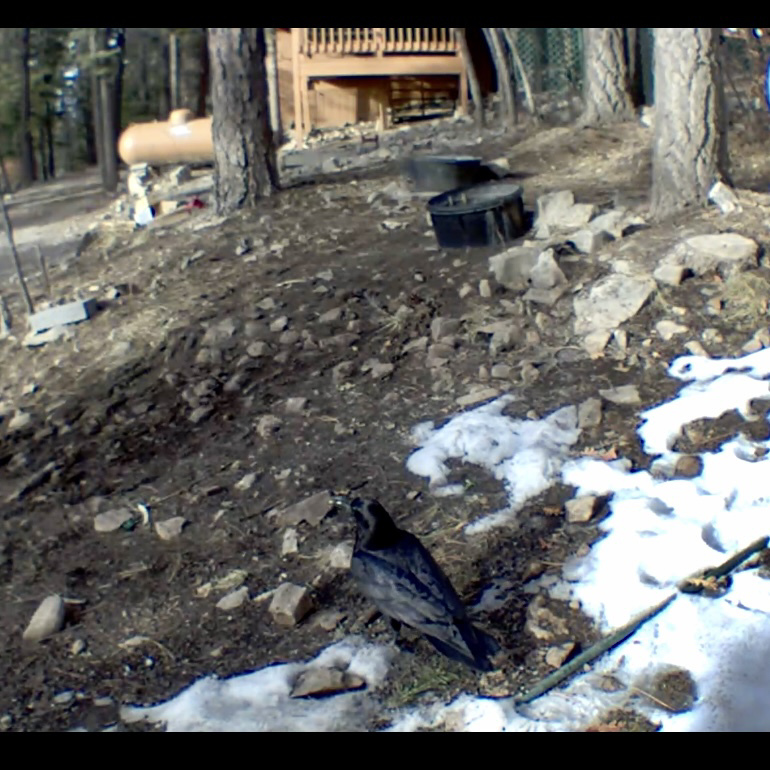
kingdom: Animalia
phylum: Chordata
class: Aves
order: Passeriformes
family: Corvidae
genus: Corvus
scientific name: Corvus corax
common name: Common raven
